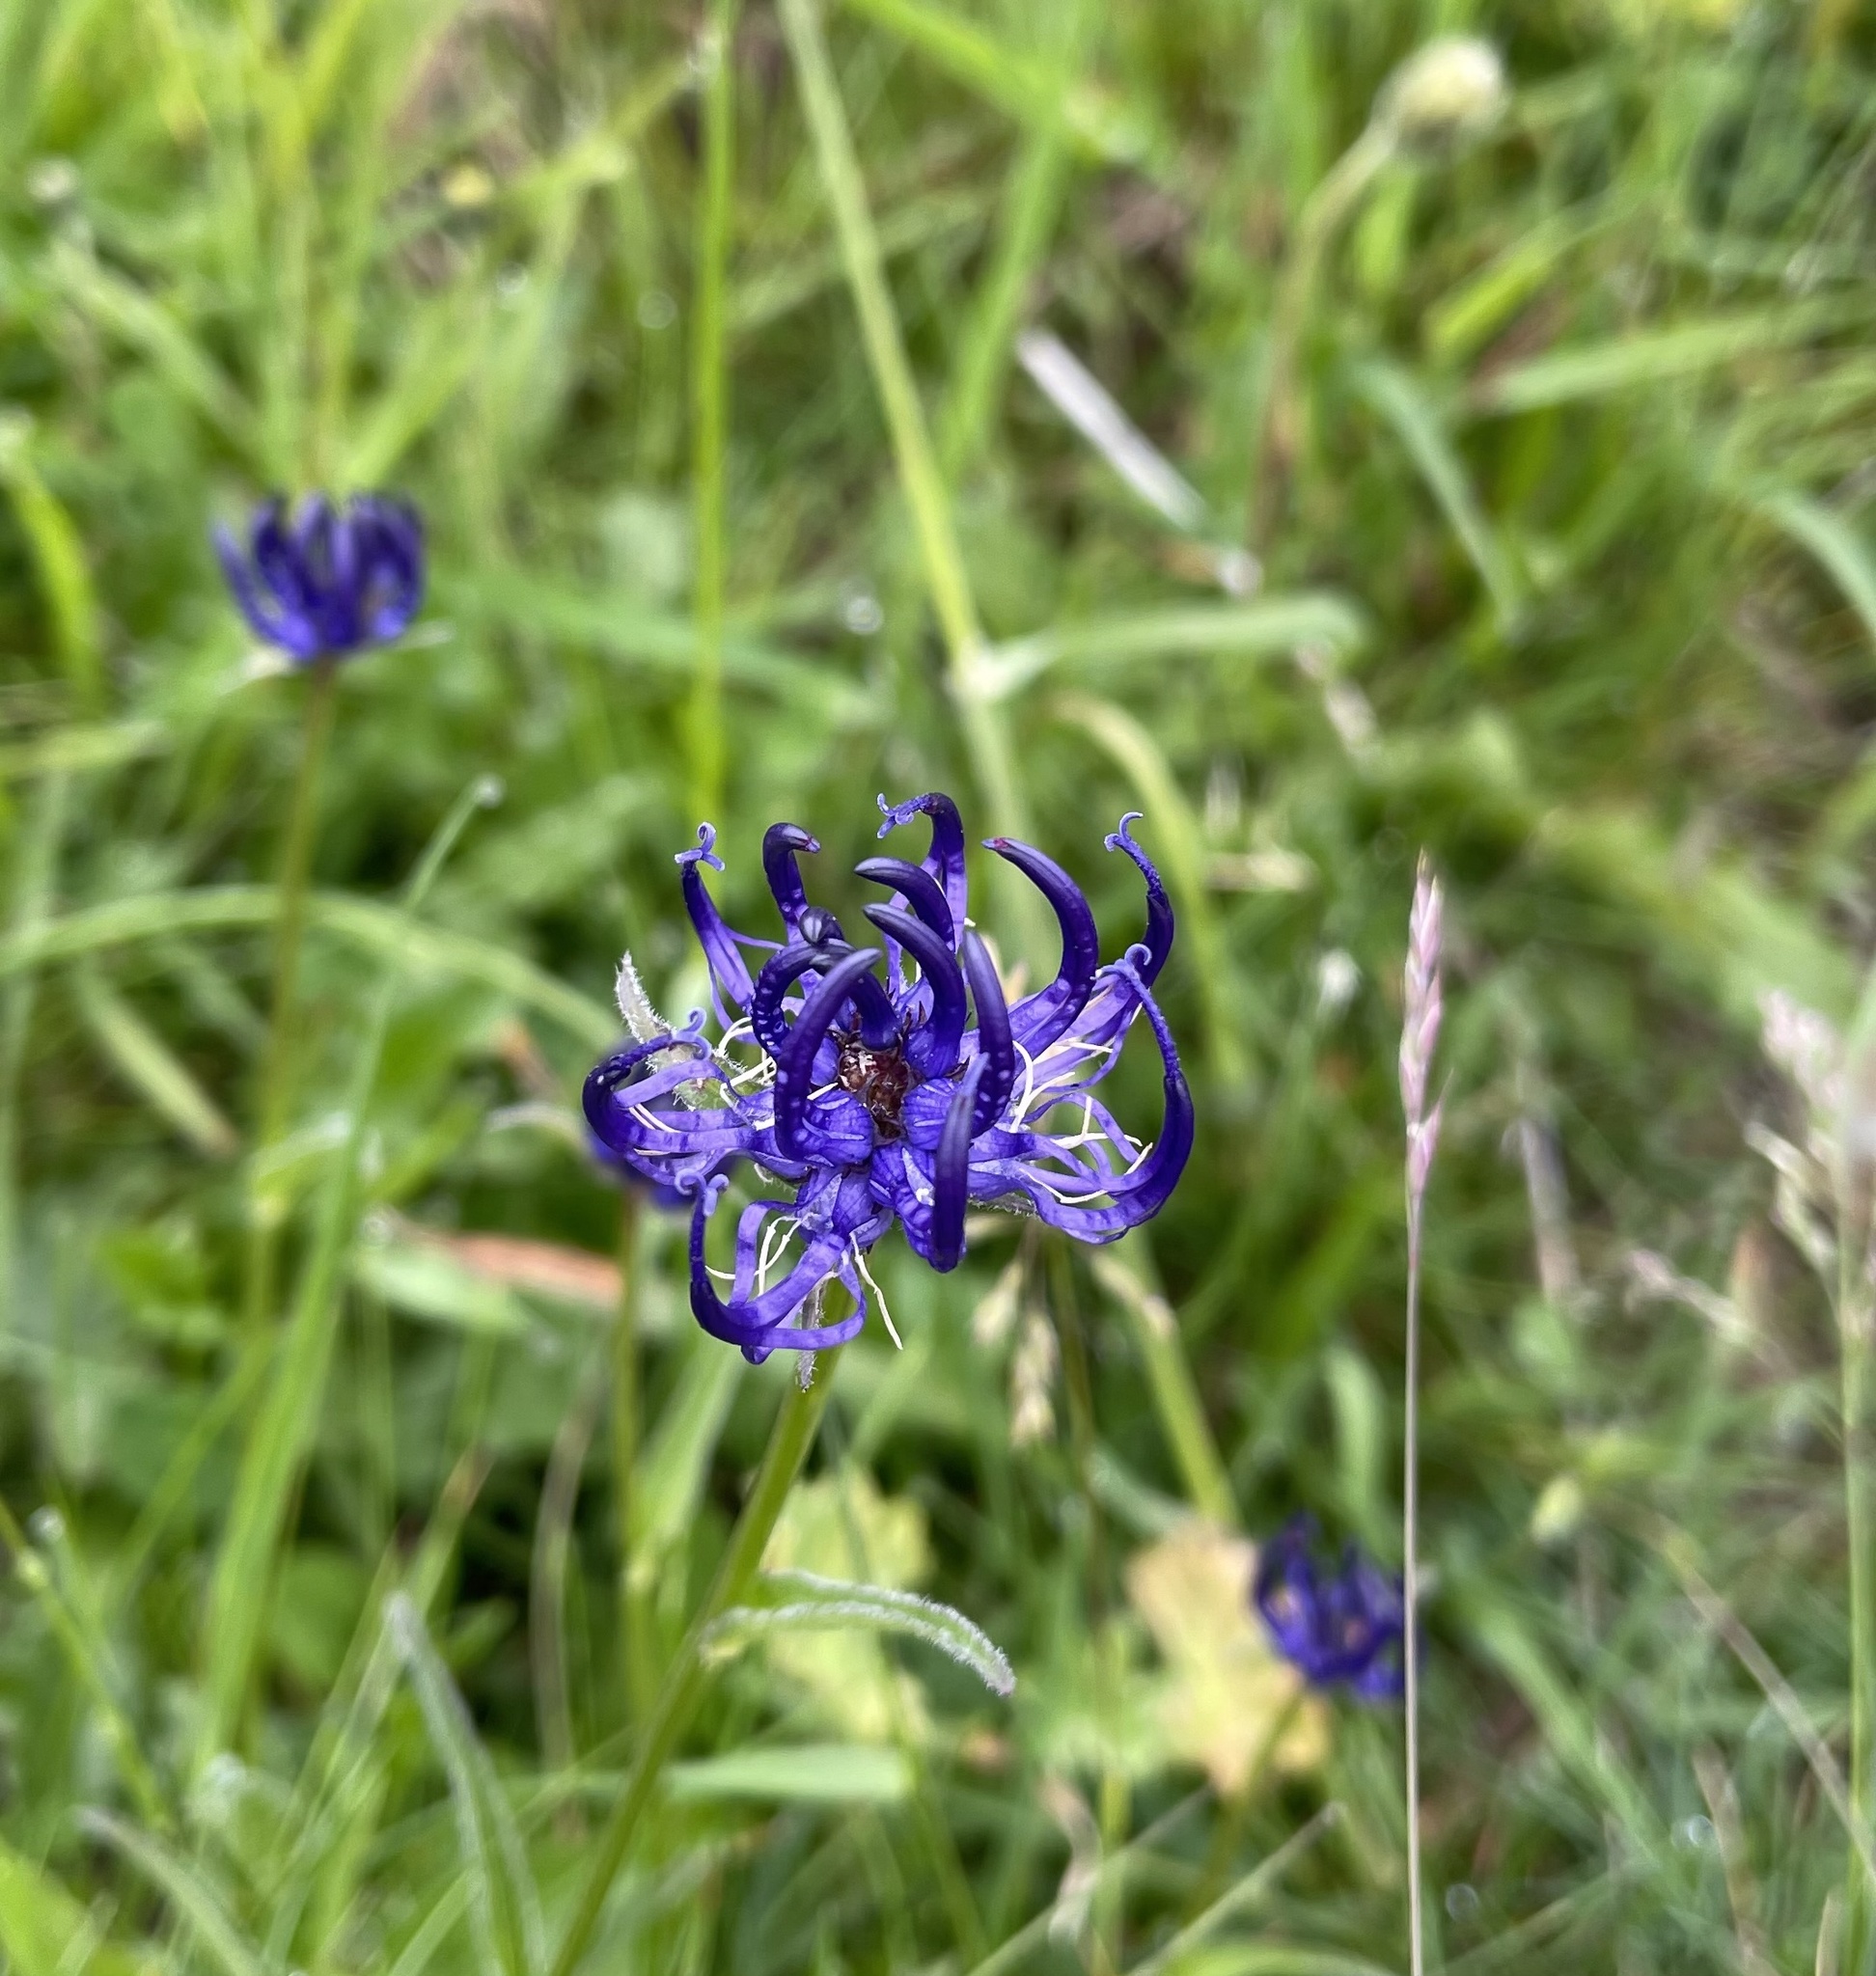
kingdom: Plantae
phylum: Tracheophyta
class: Magnoliopsida
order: Asterales
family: Campanulaceae
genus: Phyteuma
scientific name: Phyteuma orbiculare
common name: Round-headed rampion
